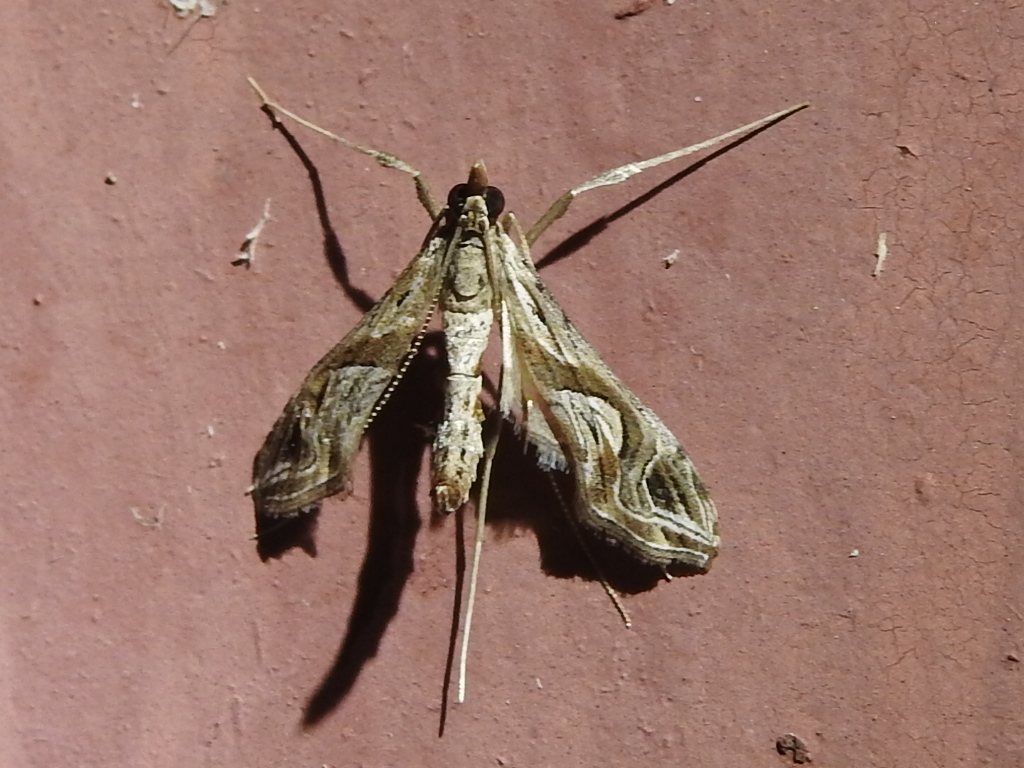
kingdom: Animalia
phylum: Arthropoda
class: Insecta
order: Lepidoptera
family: Crambidae
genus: Lineodes
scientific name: Lineodes integra
